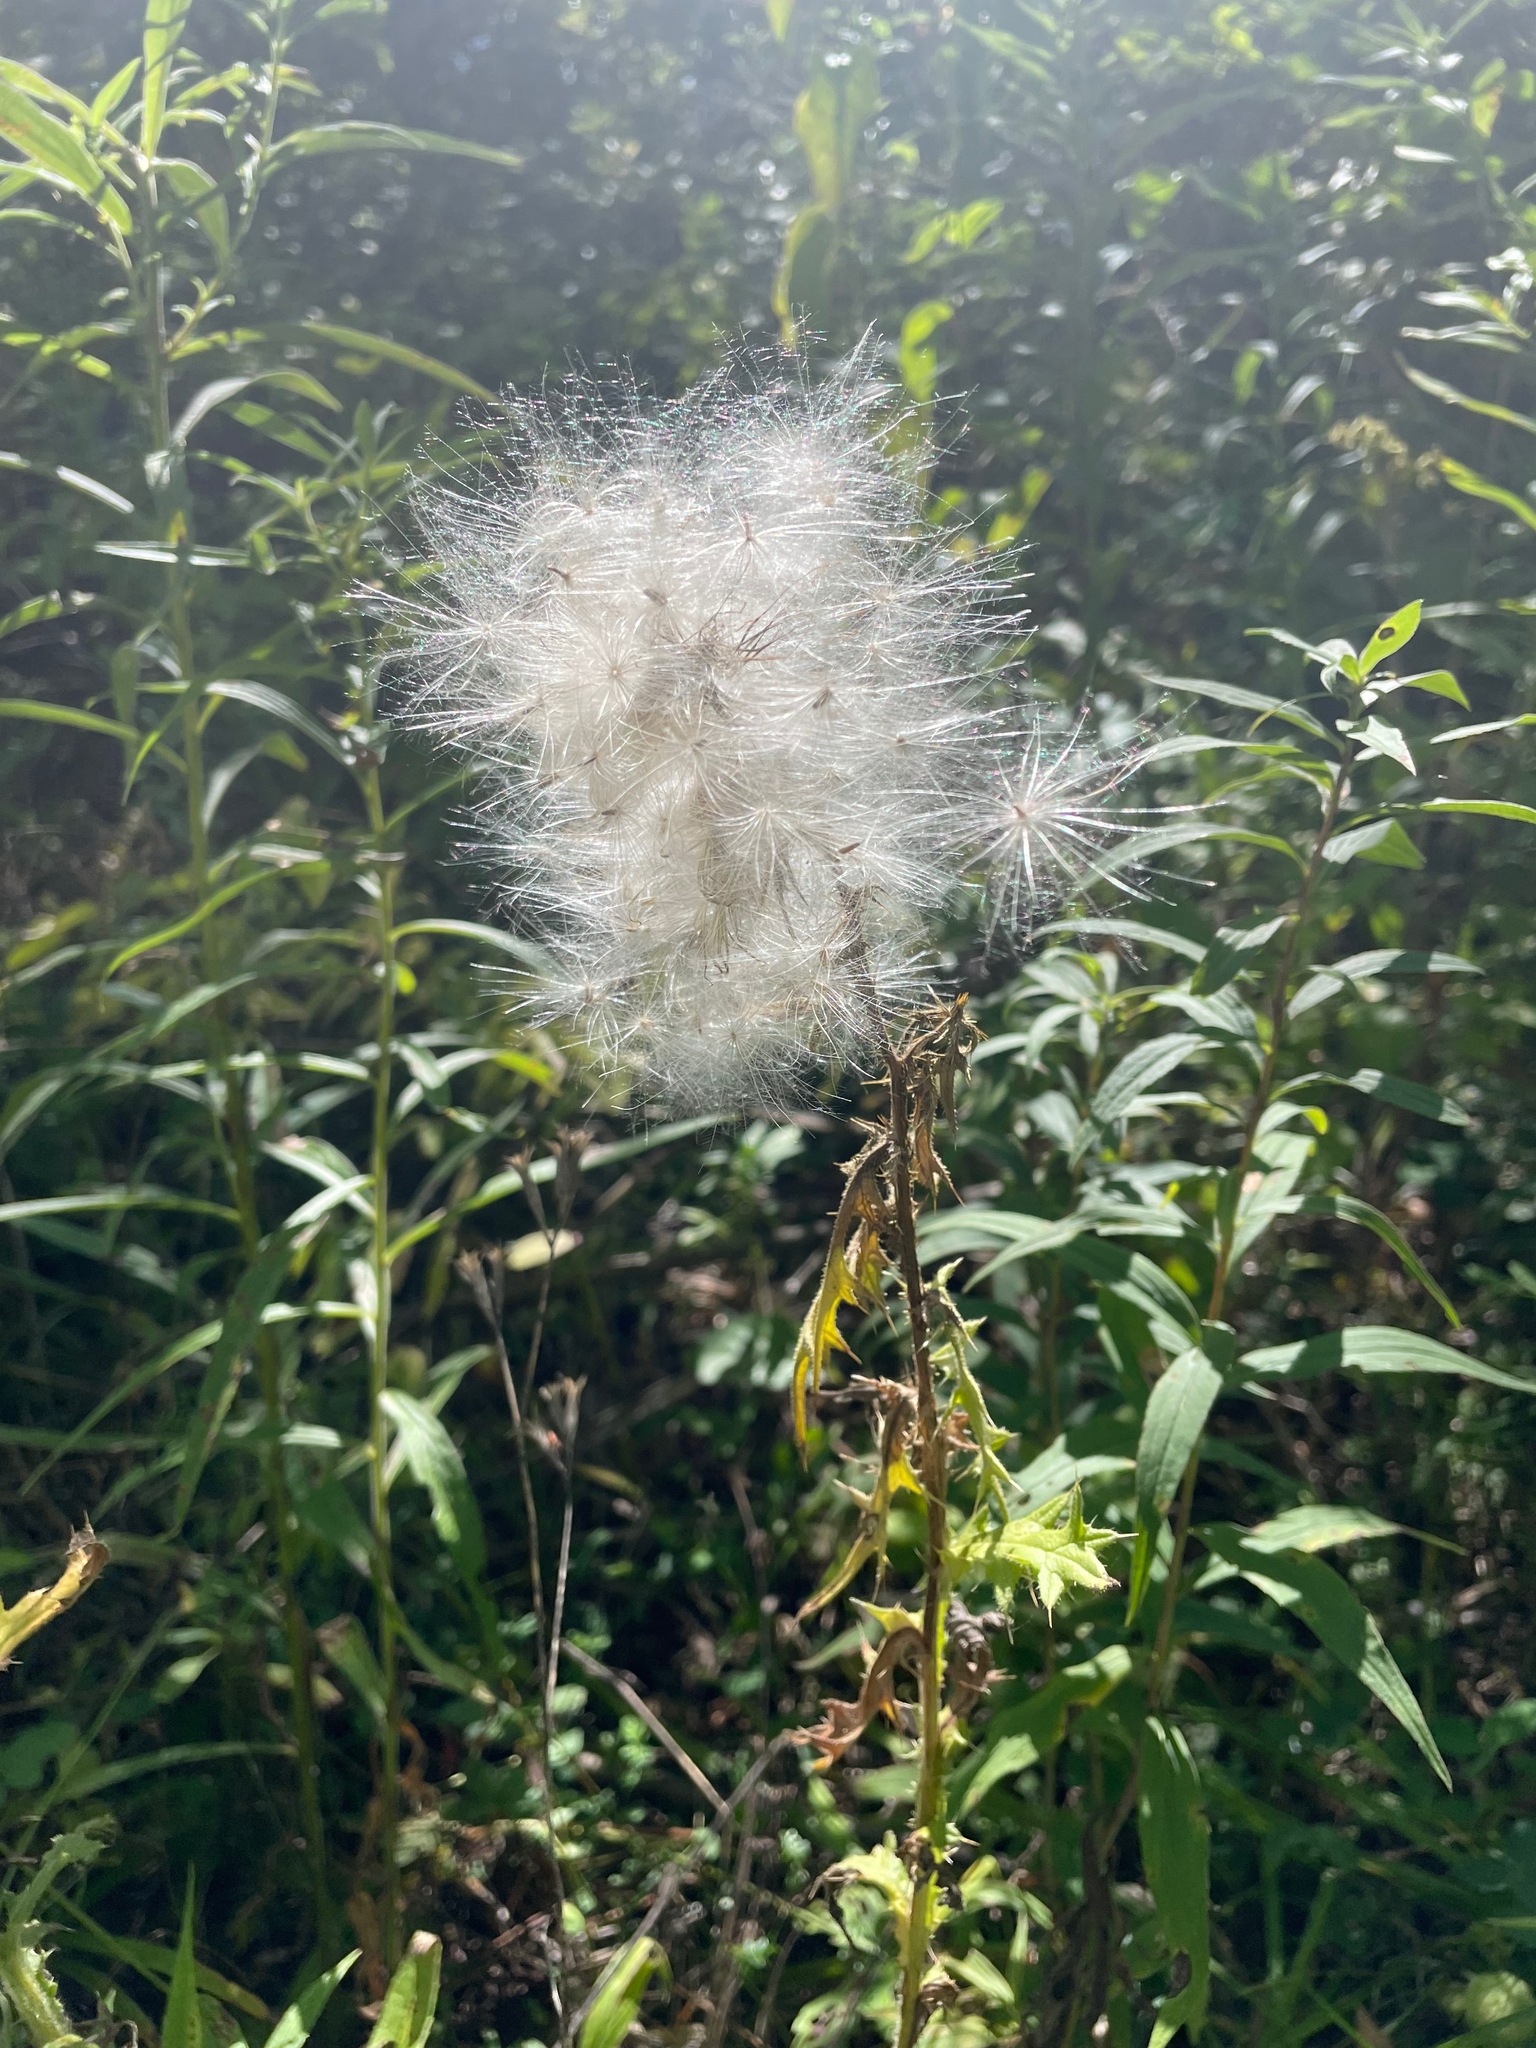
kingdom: Plantae
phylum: Tracheophyta
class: Magnoliopsida
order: Asterales
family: Asteraceae
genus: Cirsium
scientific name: Cirsium vulgare
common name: Bull thistle
